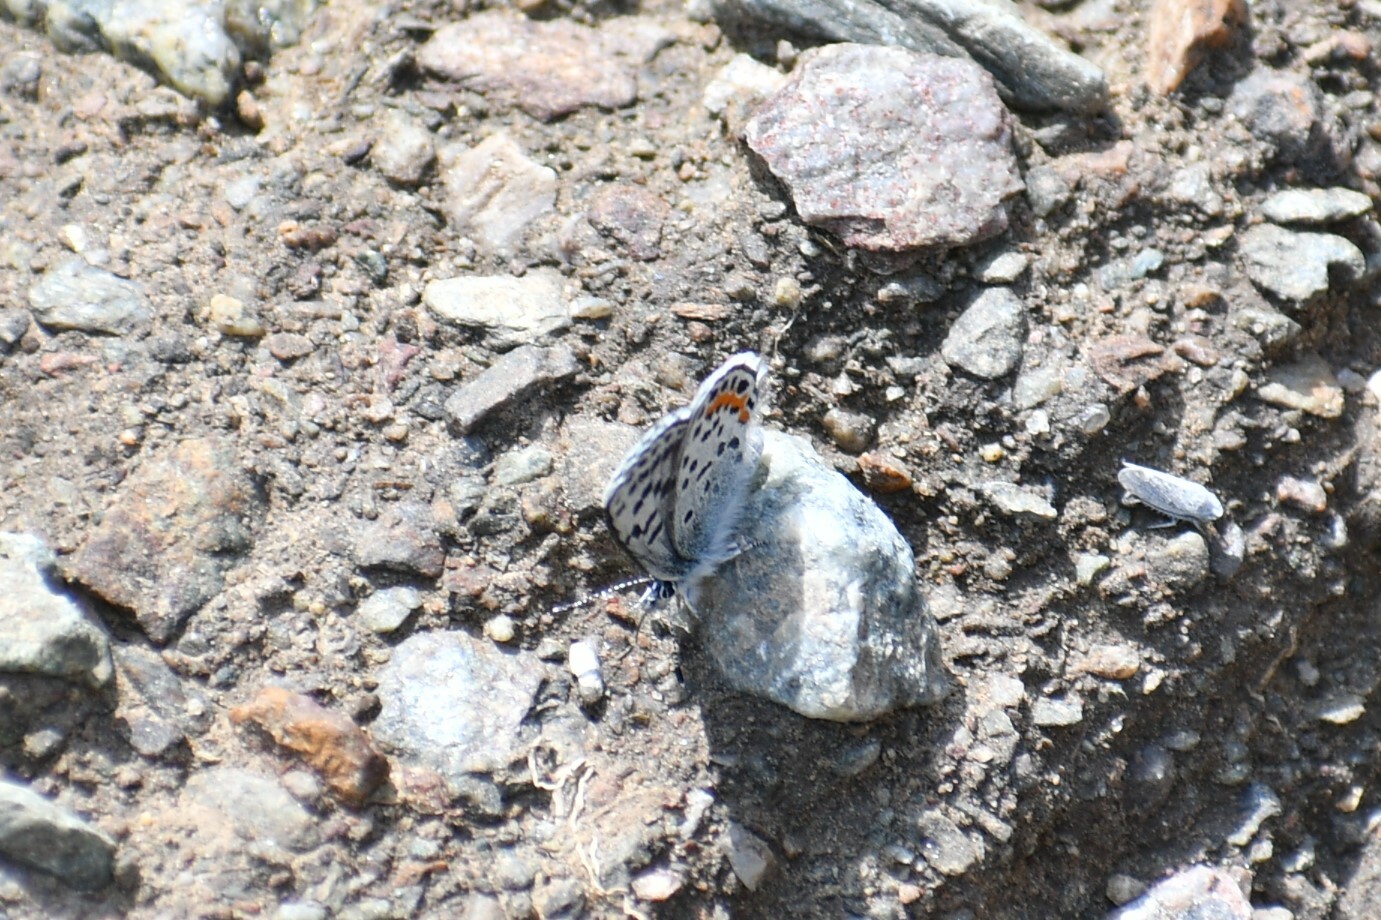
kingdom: Animalia
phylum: Arthropoda
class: Insecta
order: Lepidoptera
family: Lycaenidae
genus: Euphilotes
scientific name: Euphilotes
